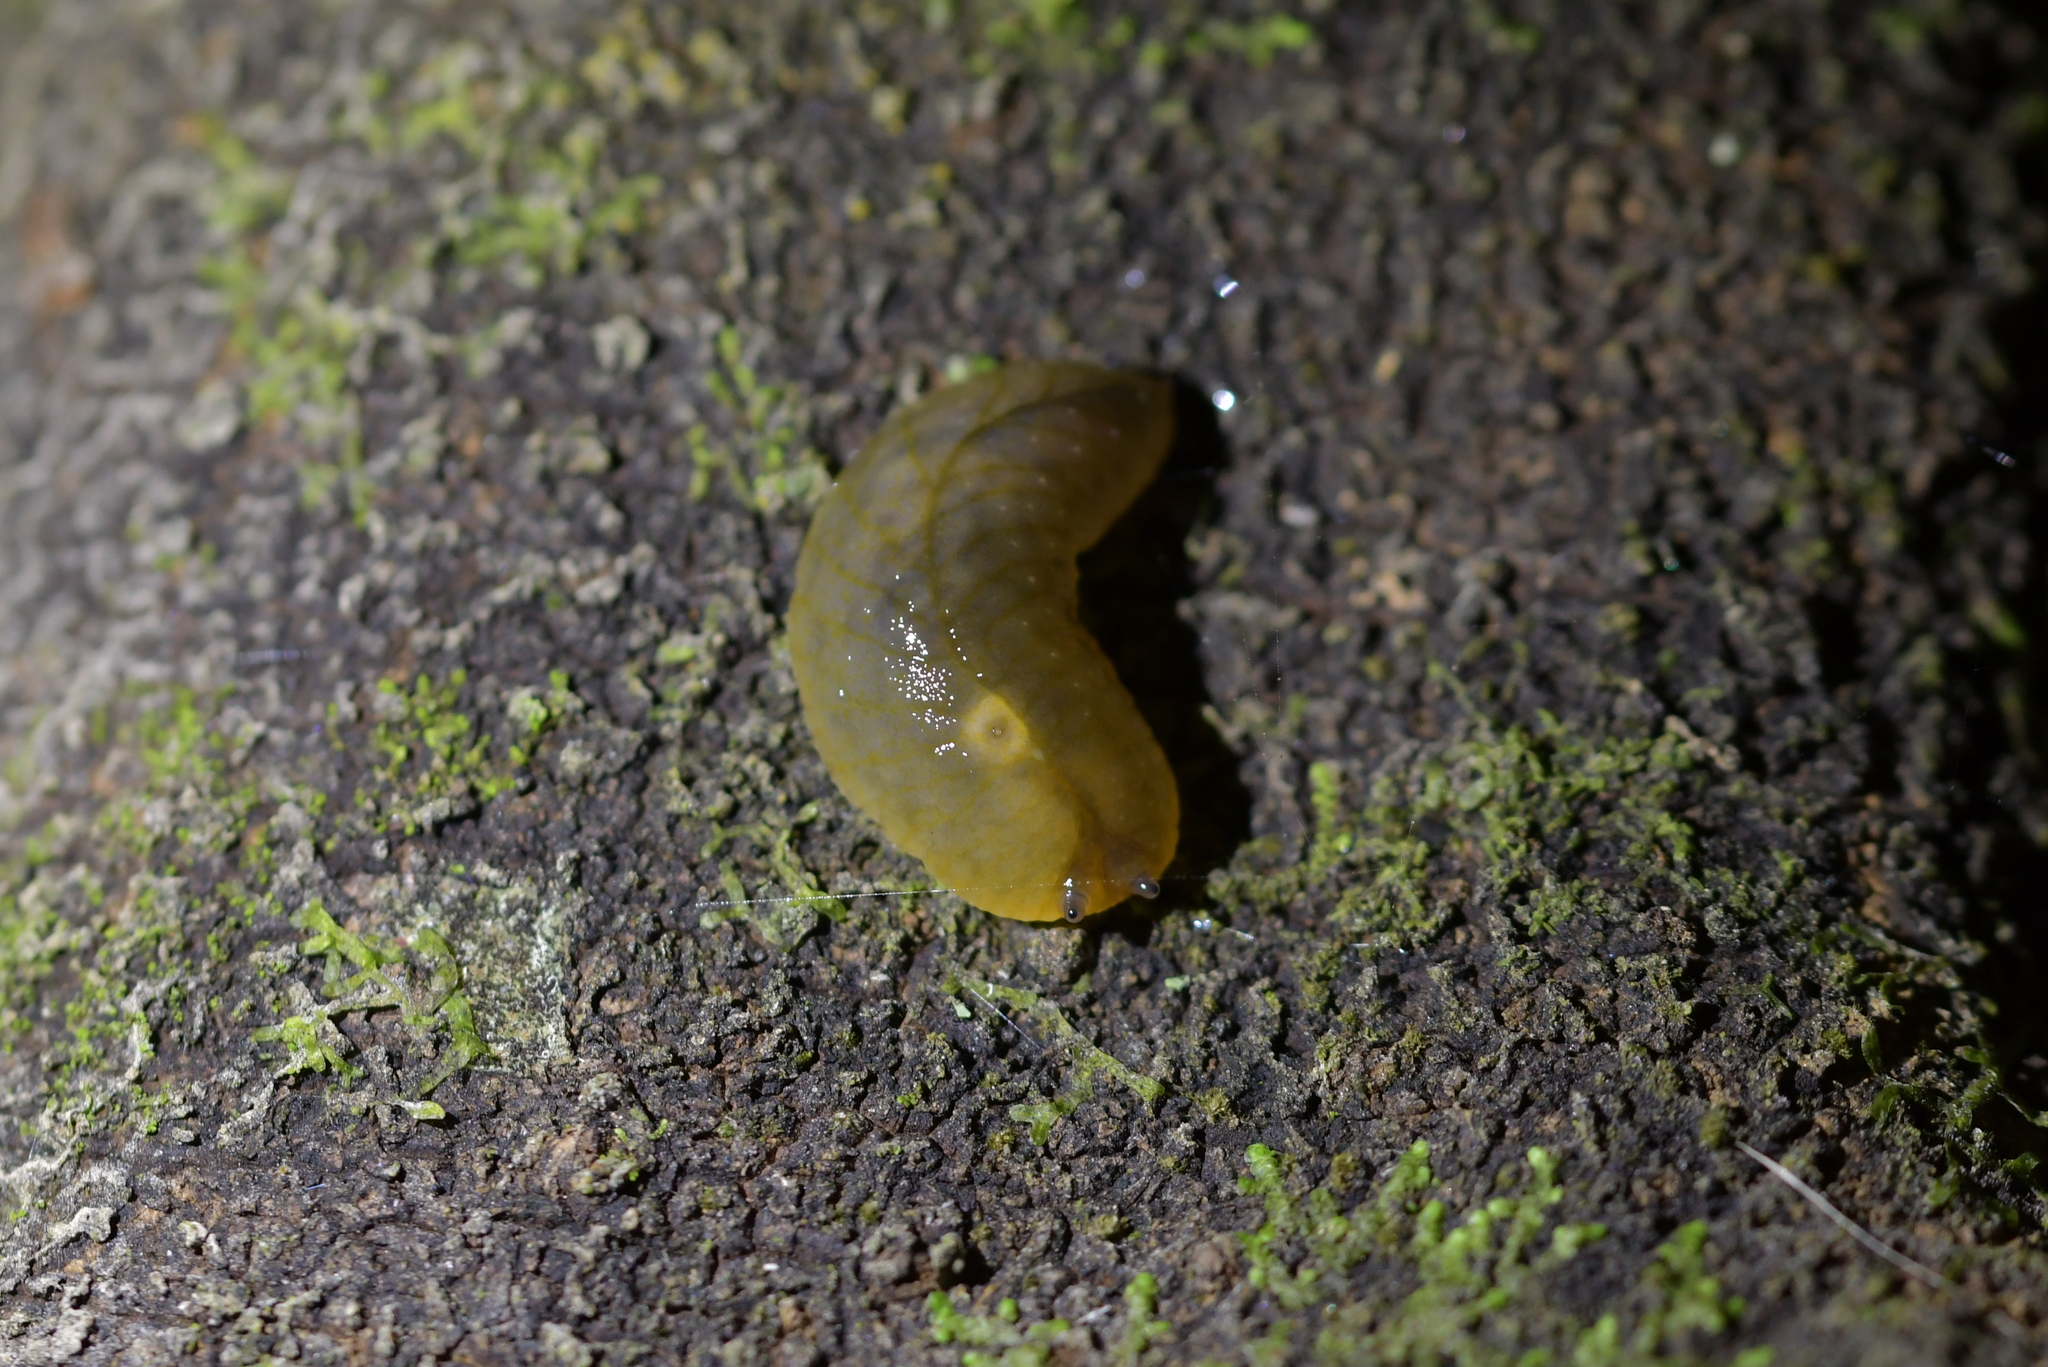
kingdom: Animalia
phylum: Mollusca
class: Gastropoda
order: Stylommatophora
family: Athoracophoridae
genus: Athoracophorus
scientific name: Athoracophorus bitentaculatus
